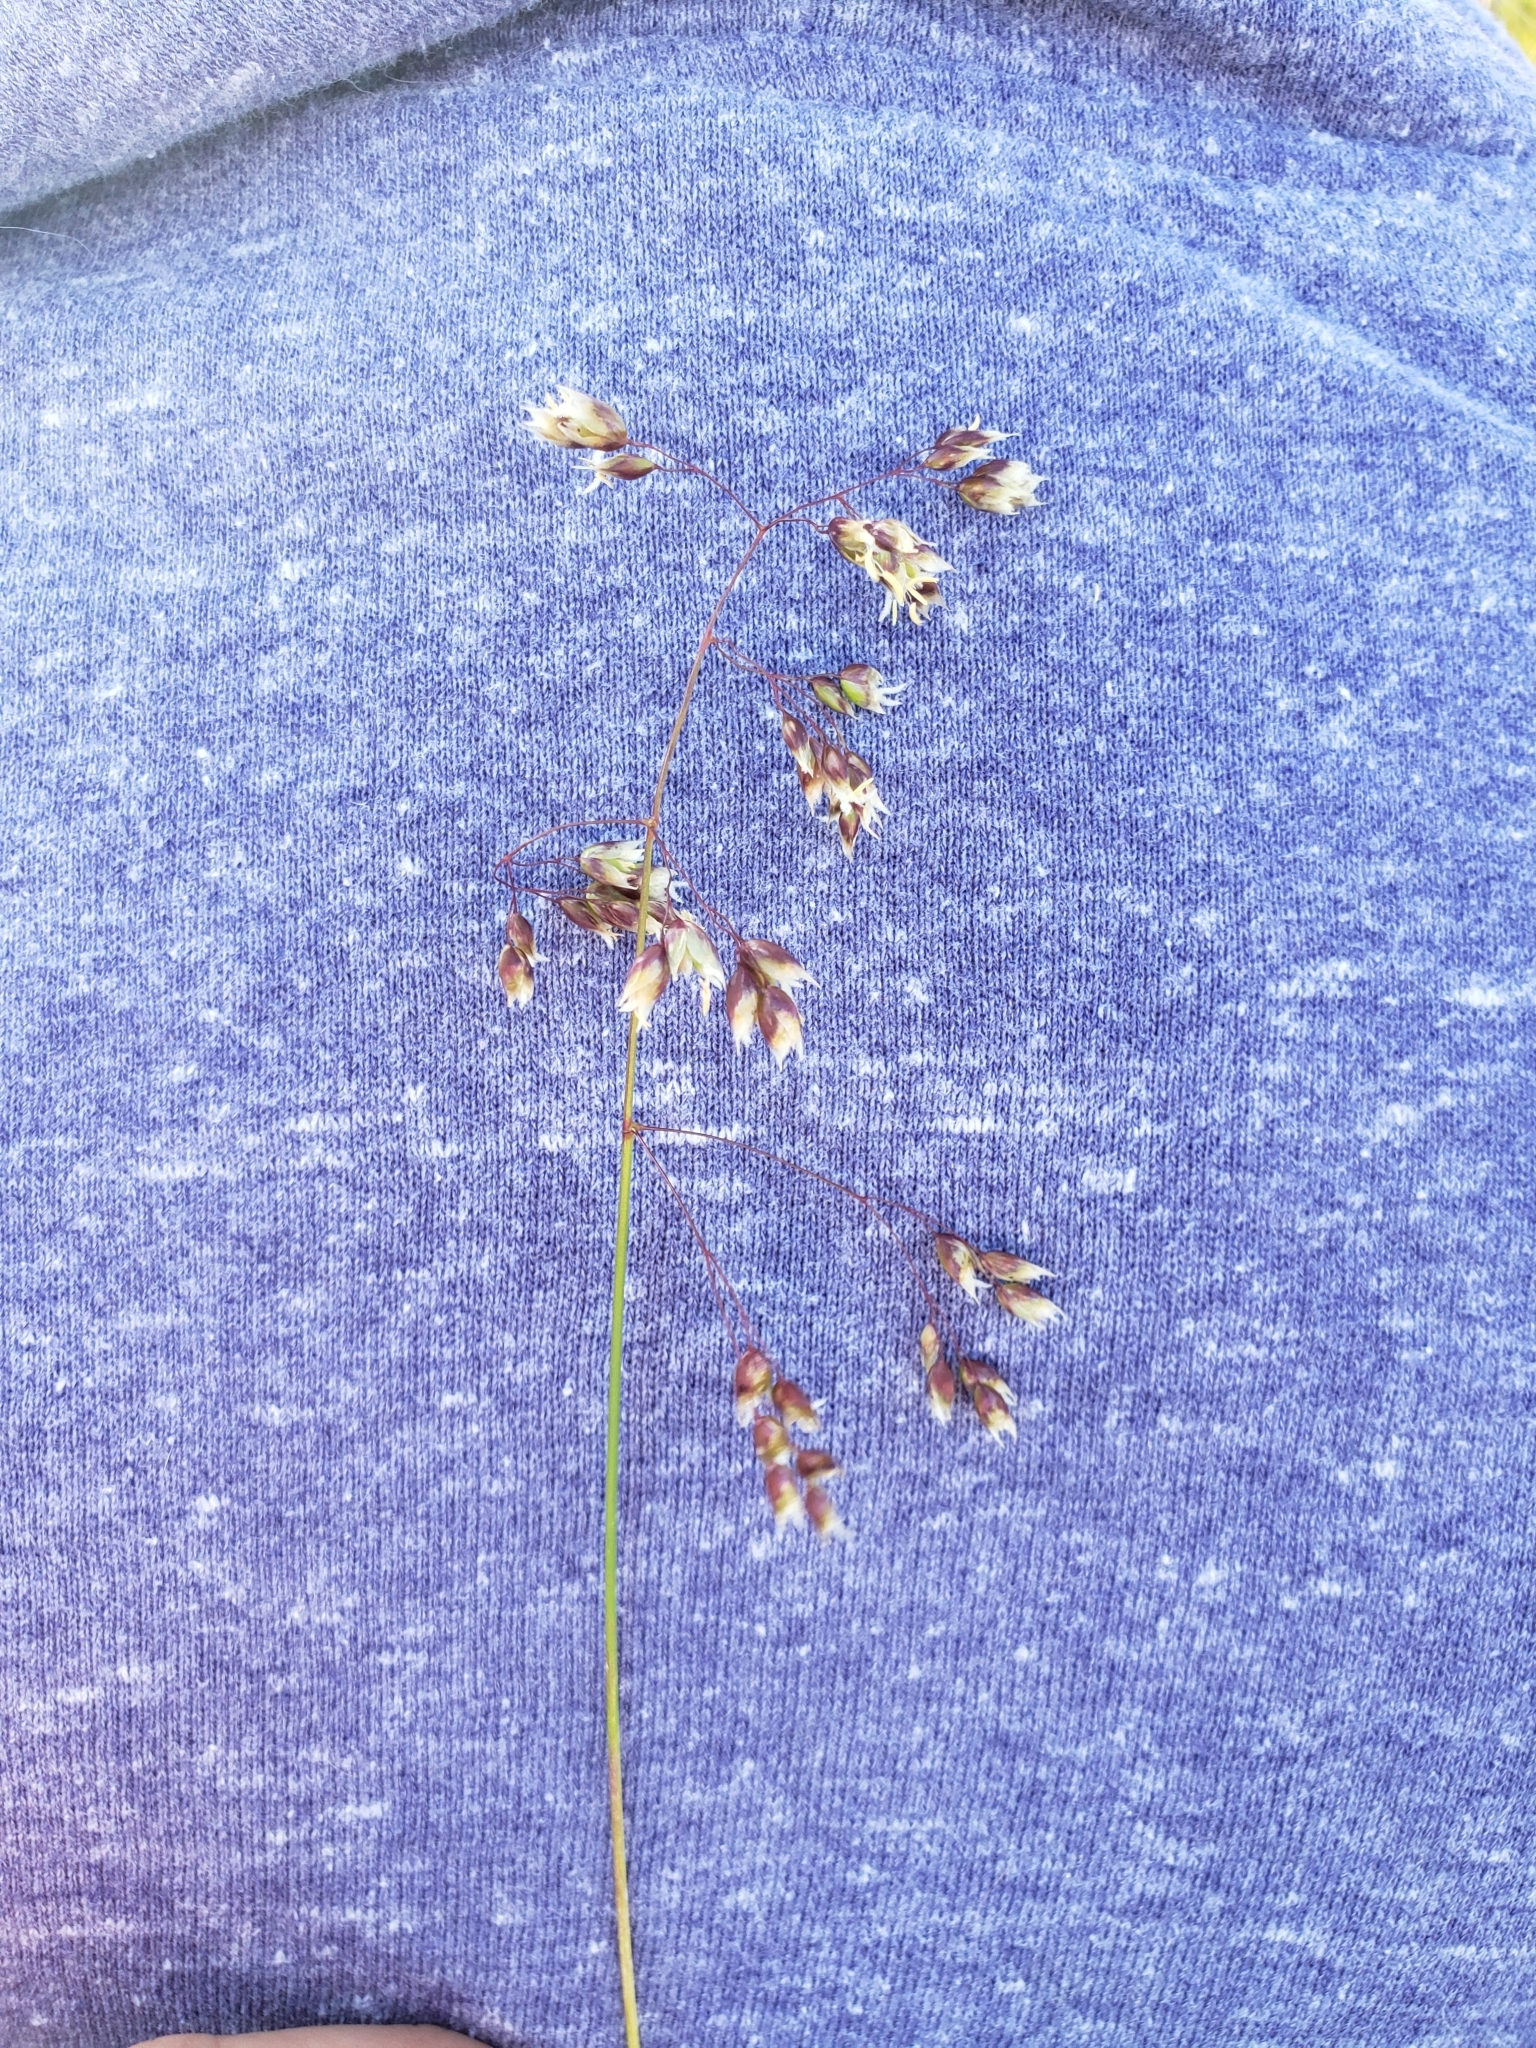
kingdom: Plantae
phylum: Tracheophyta
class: Liliopsida
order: Poales
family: Poaceae
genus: Anthoxanthum
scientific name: Anthoxanthum nitens
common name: Holy grass
